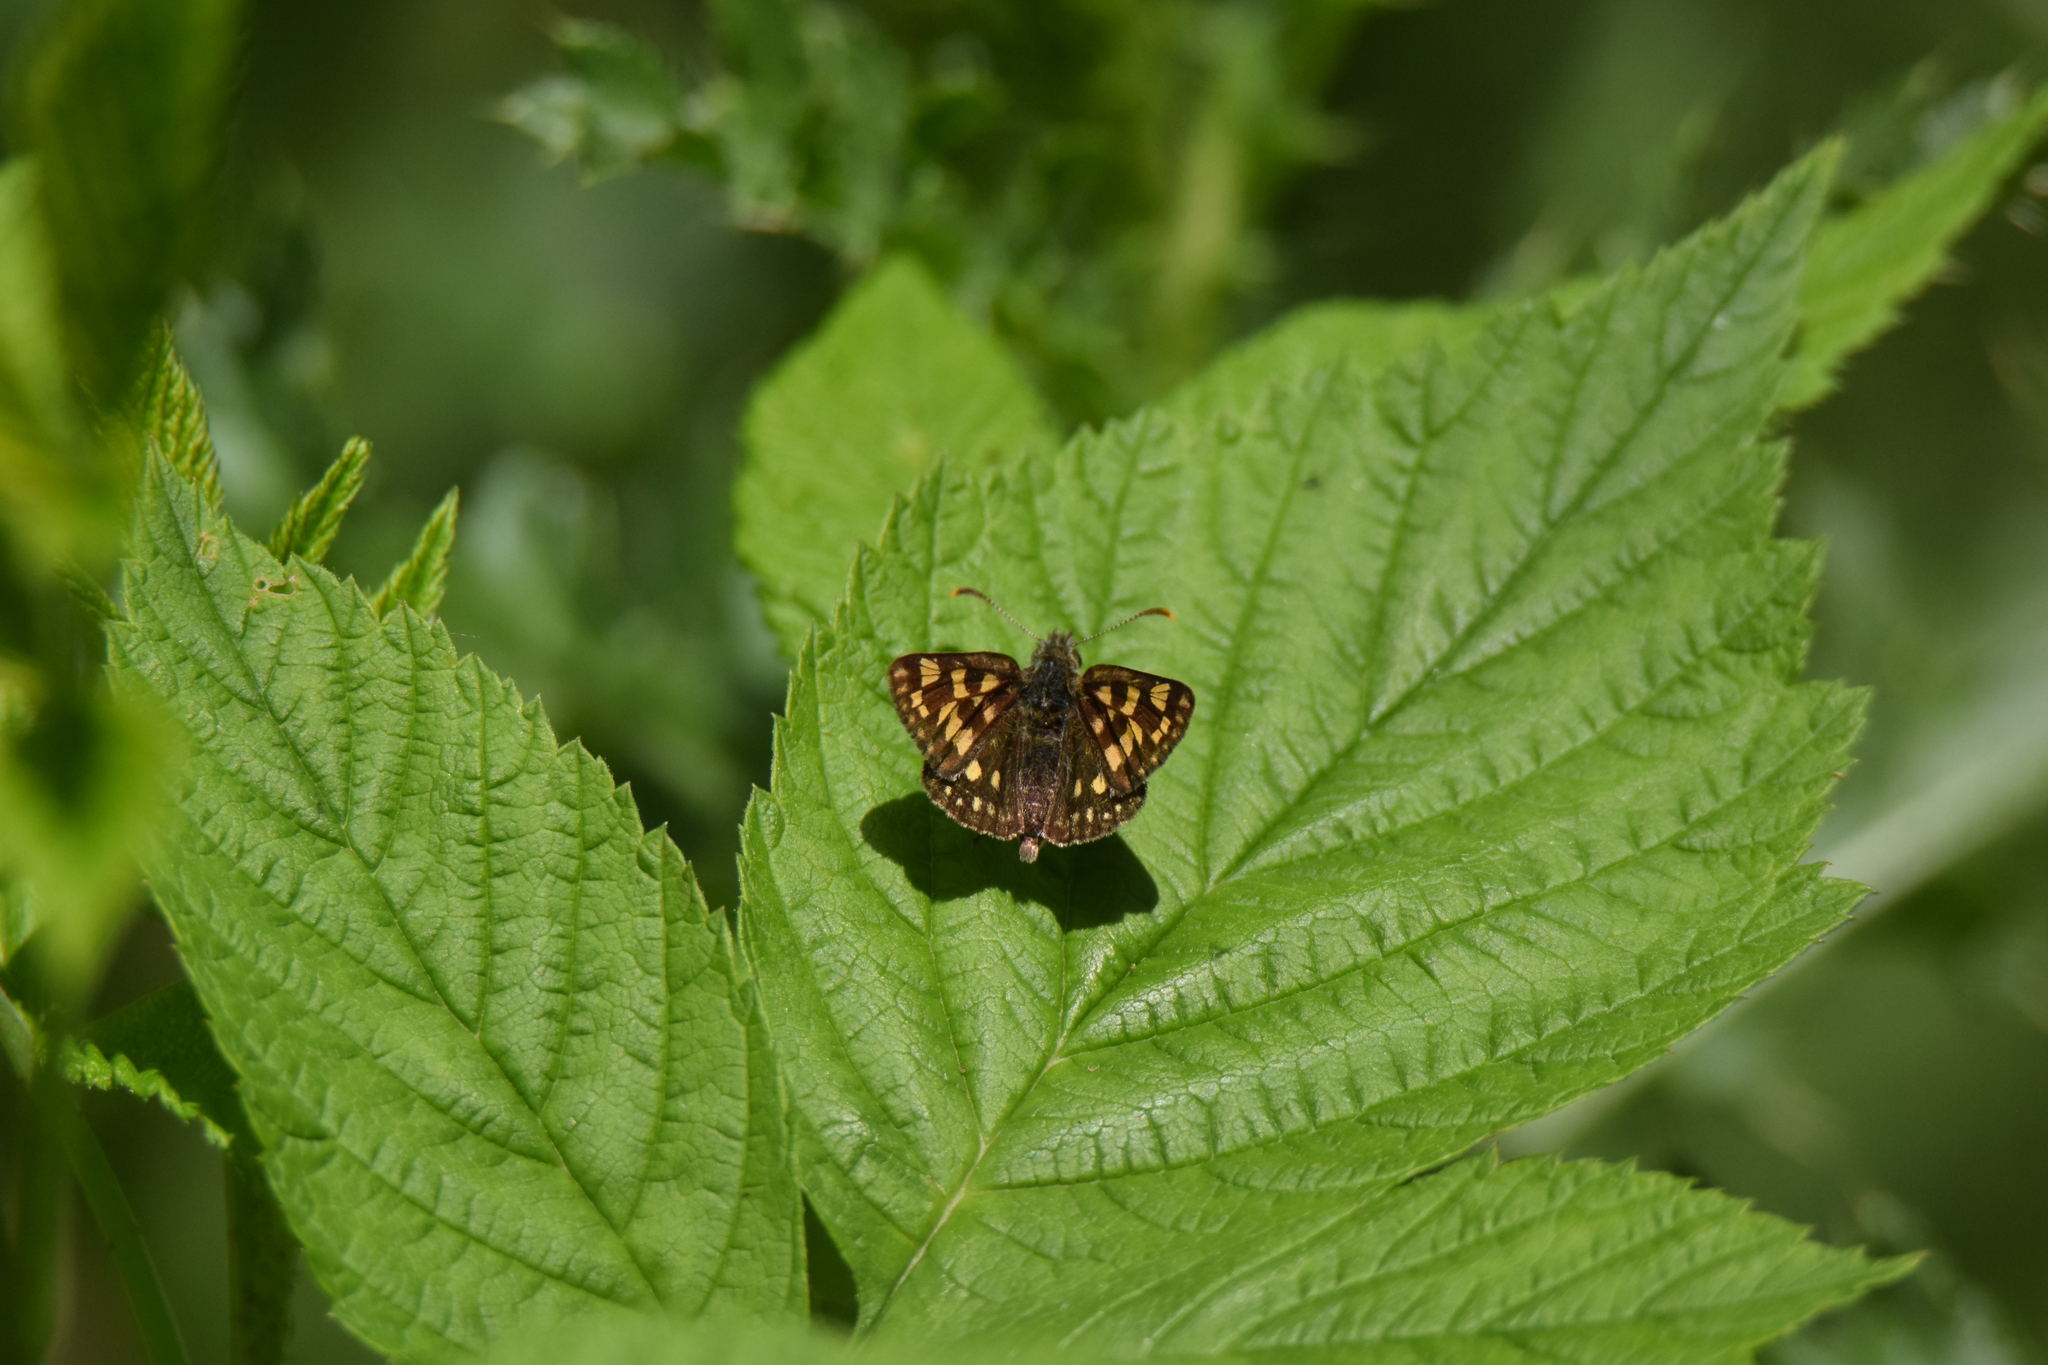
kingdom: Animalia
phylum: Arthropoda
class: Insecta
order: Lepidoptera
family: Hesperiidae
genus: Carterocephalus
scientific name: Carterocephalus palaemon
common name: Chequered skipper
